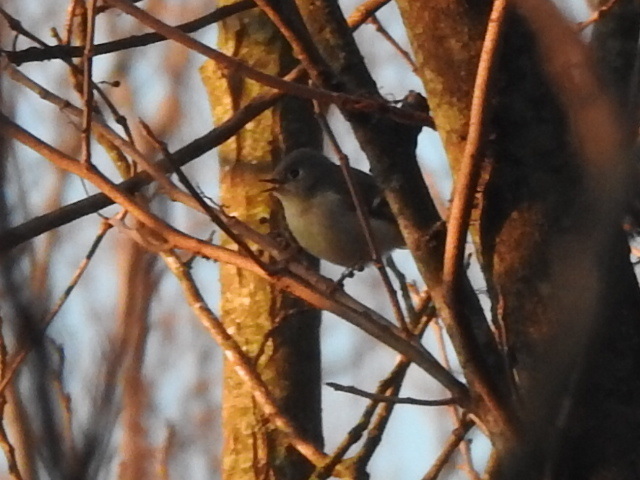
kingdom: Animalia
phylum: Chordata
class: Aves
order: Passeriformes
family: Regulidae
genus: Regulus
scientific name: Regulus calendula
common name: Ruby-crowned kinglet
